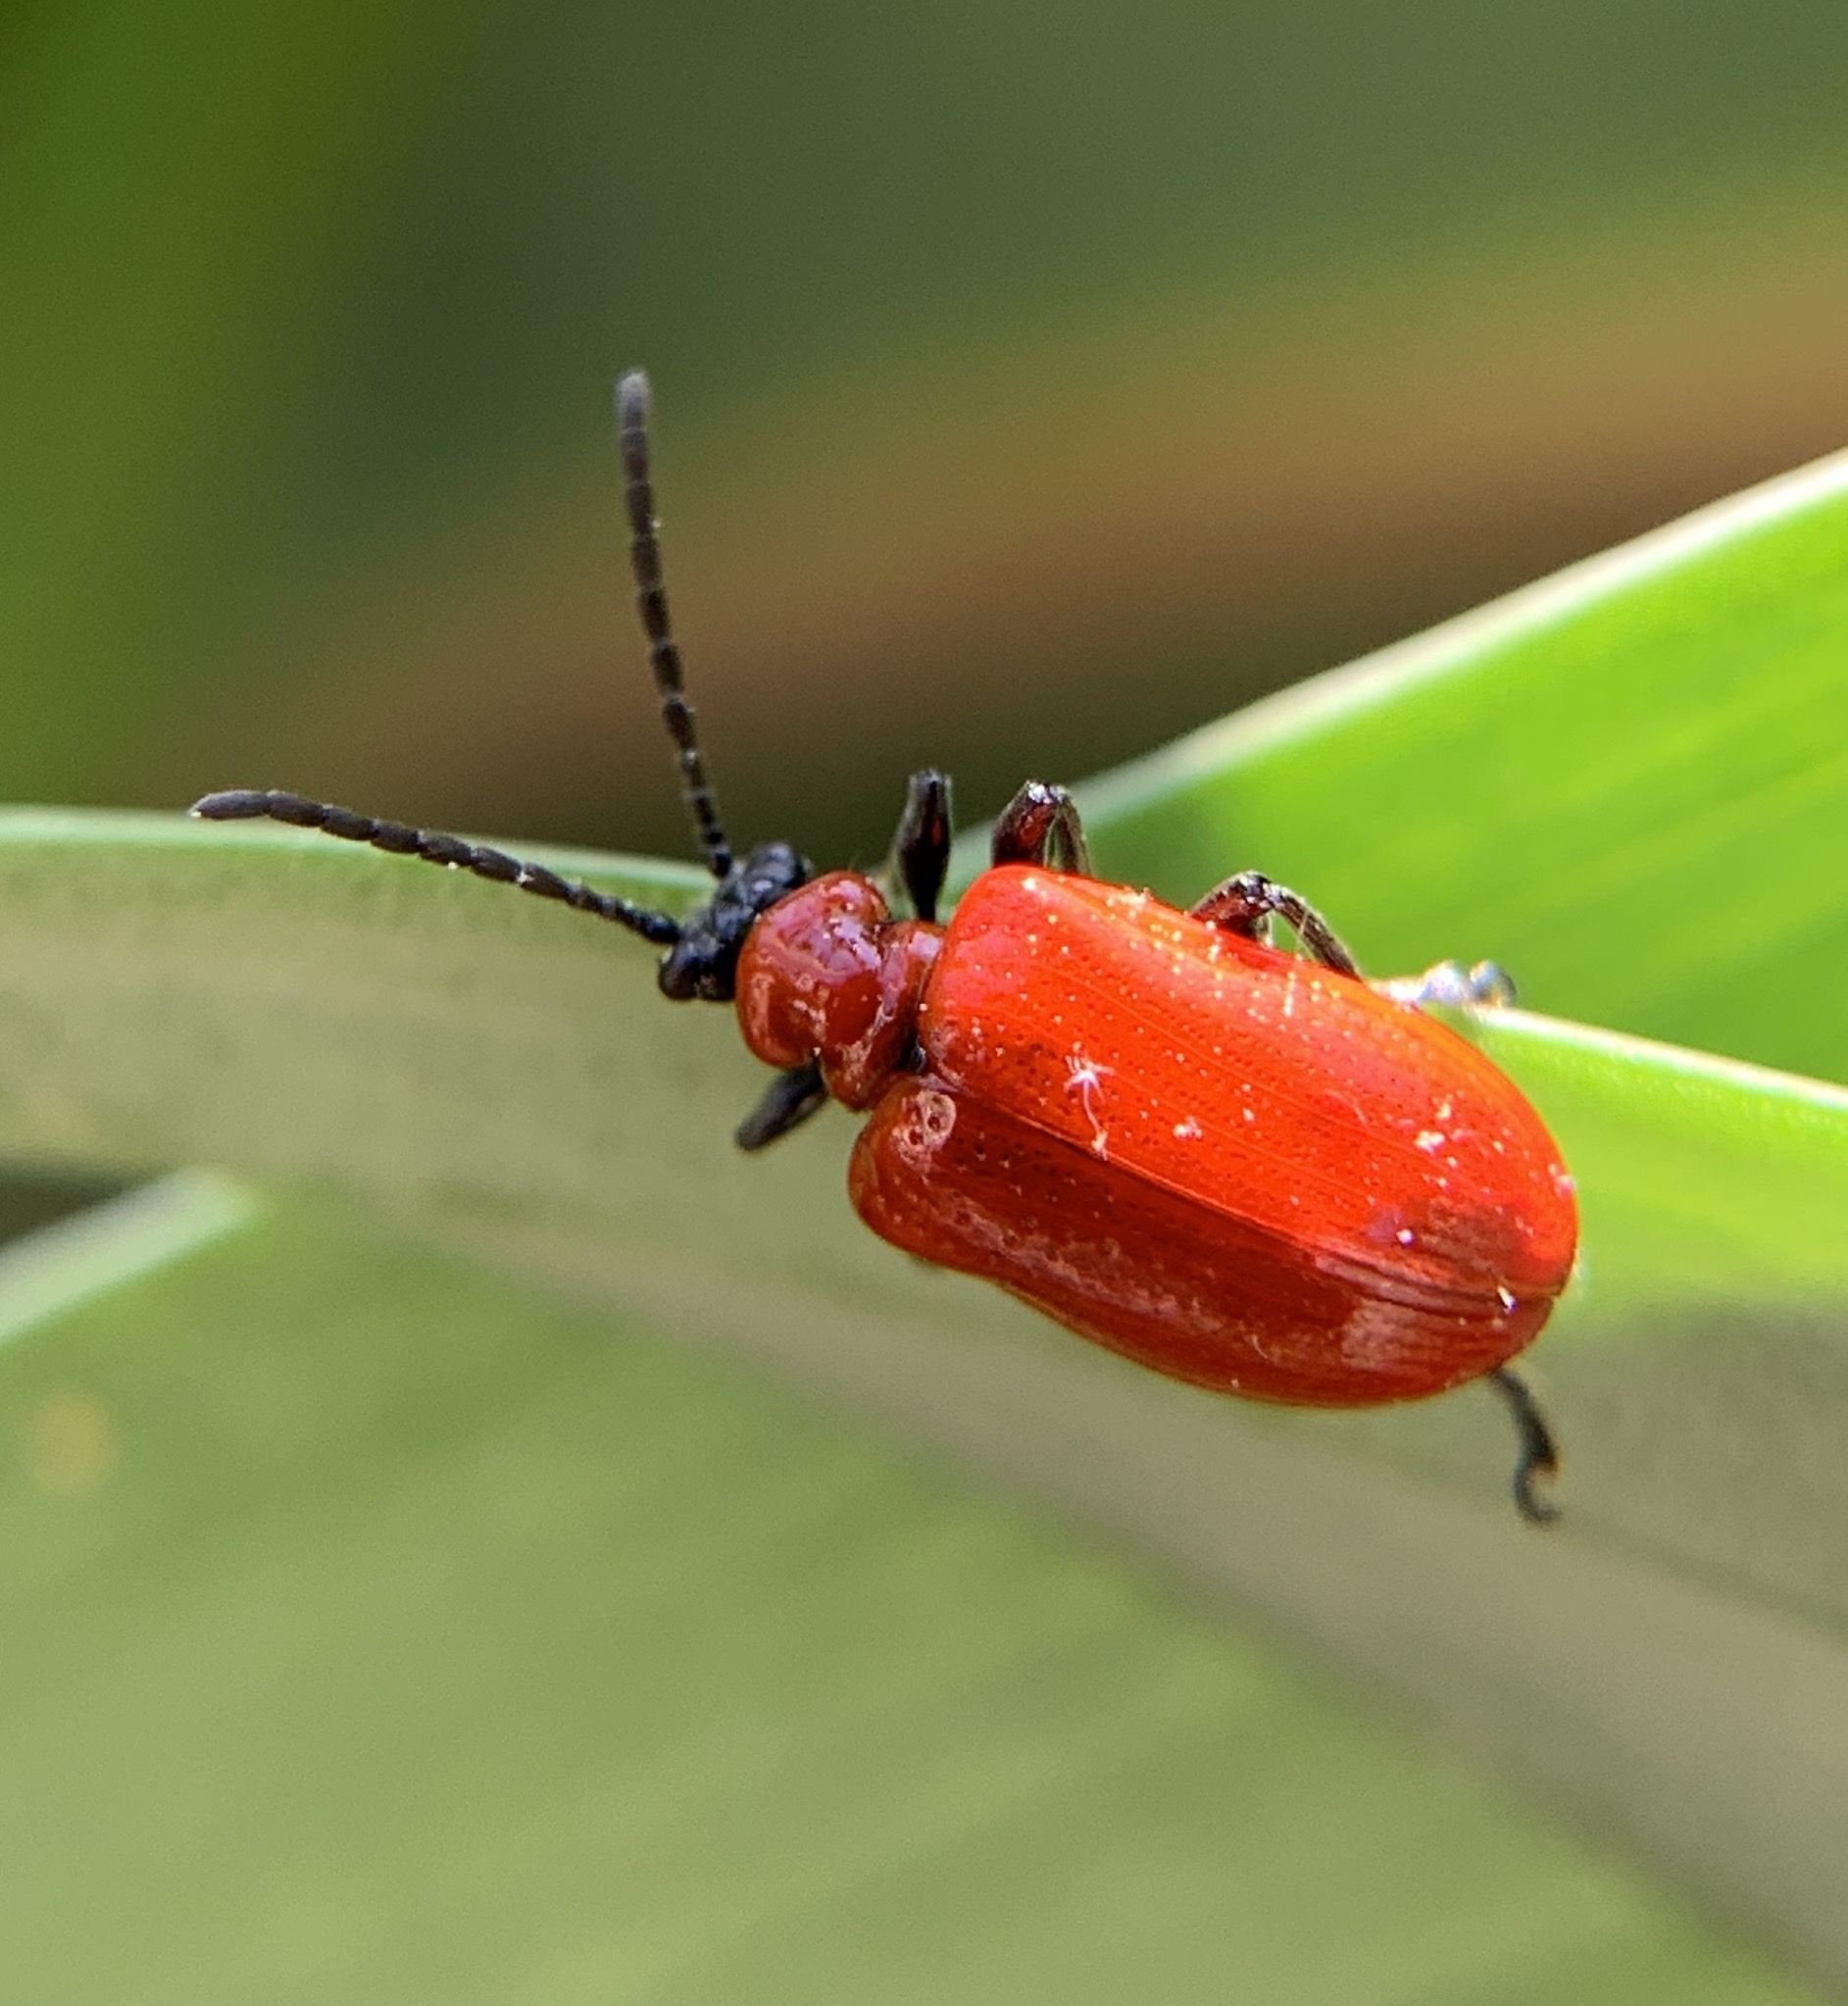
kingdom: Animalia
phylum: Arthropoda
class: Insecta
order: Coleoptera
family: Chrysomelidae
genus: Lilioceris
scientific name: Lilioceris lilii
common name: Lily beetle
